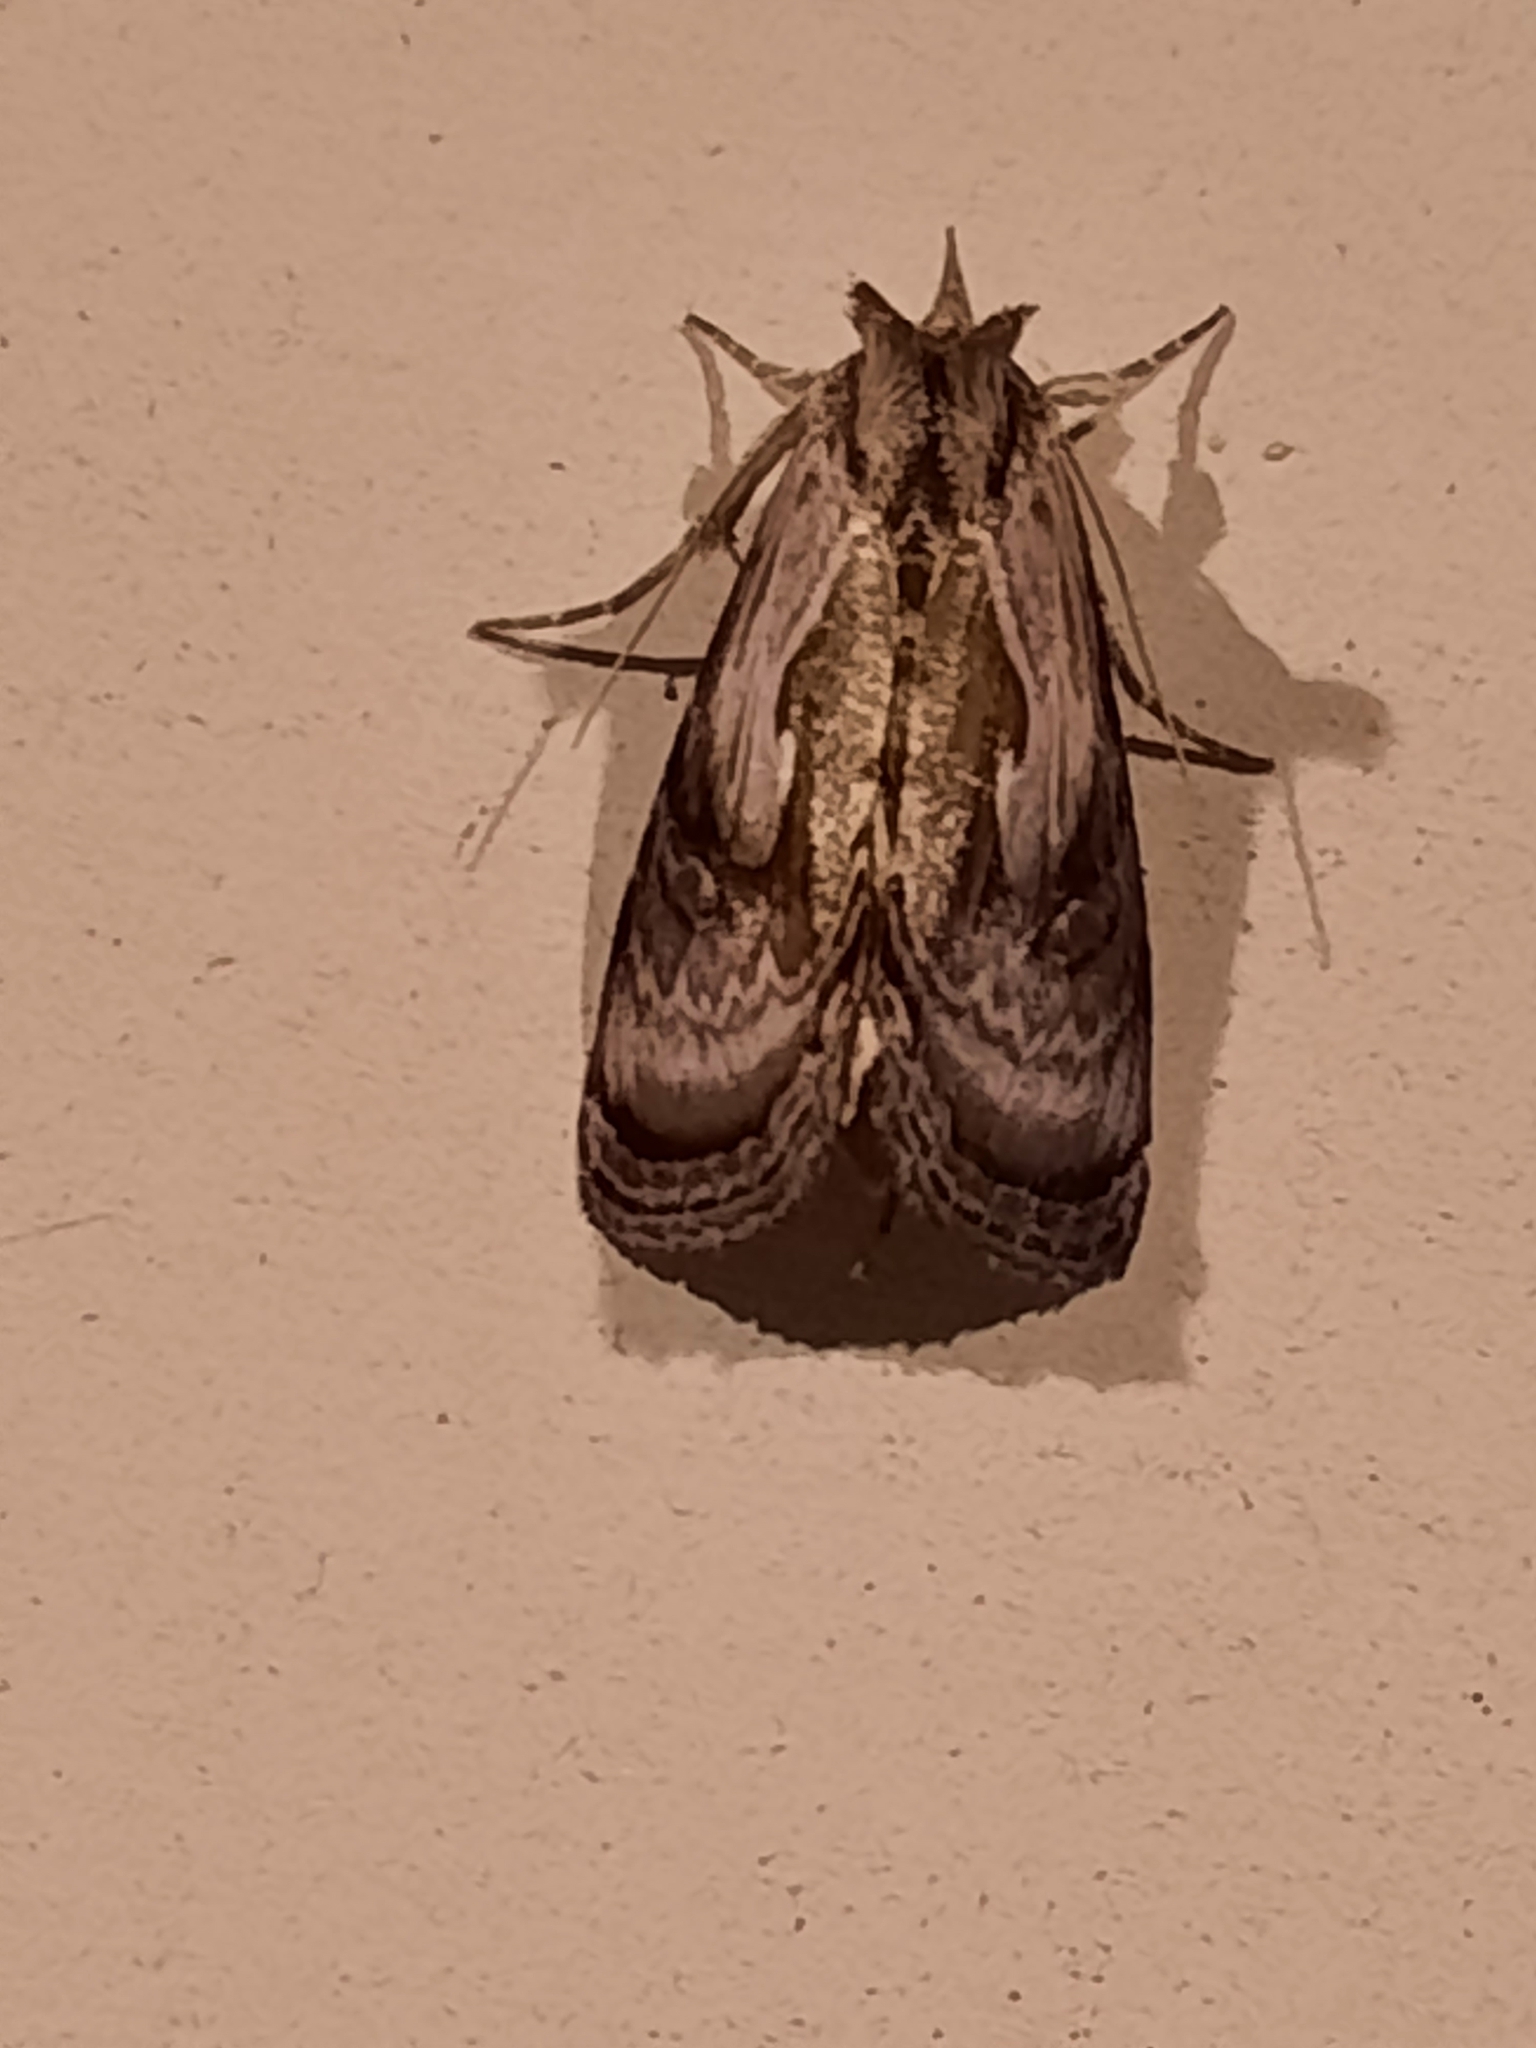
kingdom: Animalia
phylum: Arthropoda
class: Insecta
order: Lepidoptera
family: Noctuidae
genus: Chrysanympha
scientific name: Chrysanympha formosa
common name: Formosa looper moth
